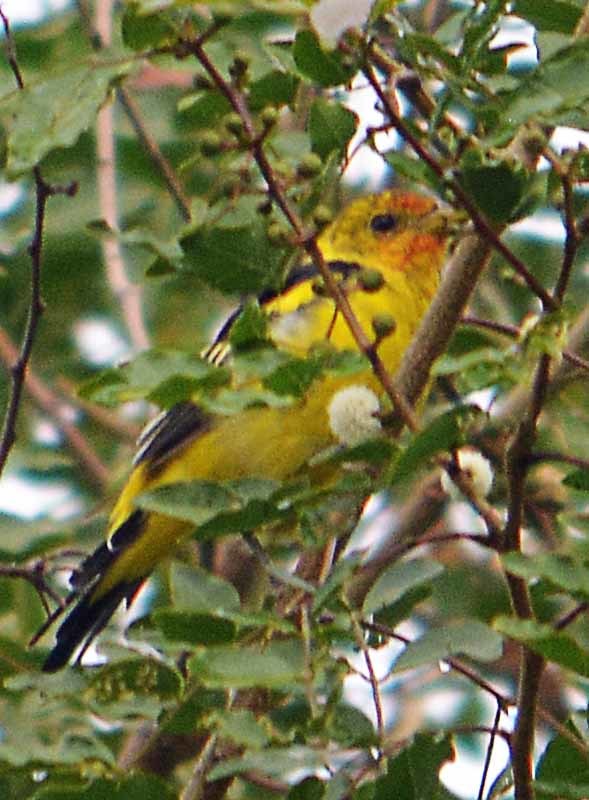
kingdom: Animalia
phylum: Chordata
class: Aves
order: Passeriformes
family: Cardinalidae
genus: Piranga
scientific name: Piranga ludoviciana
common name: Western tanager
